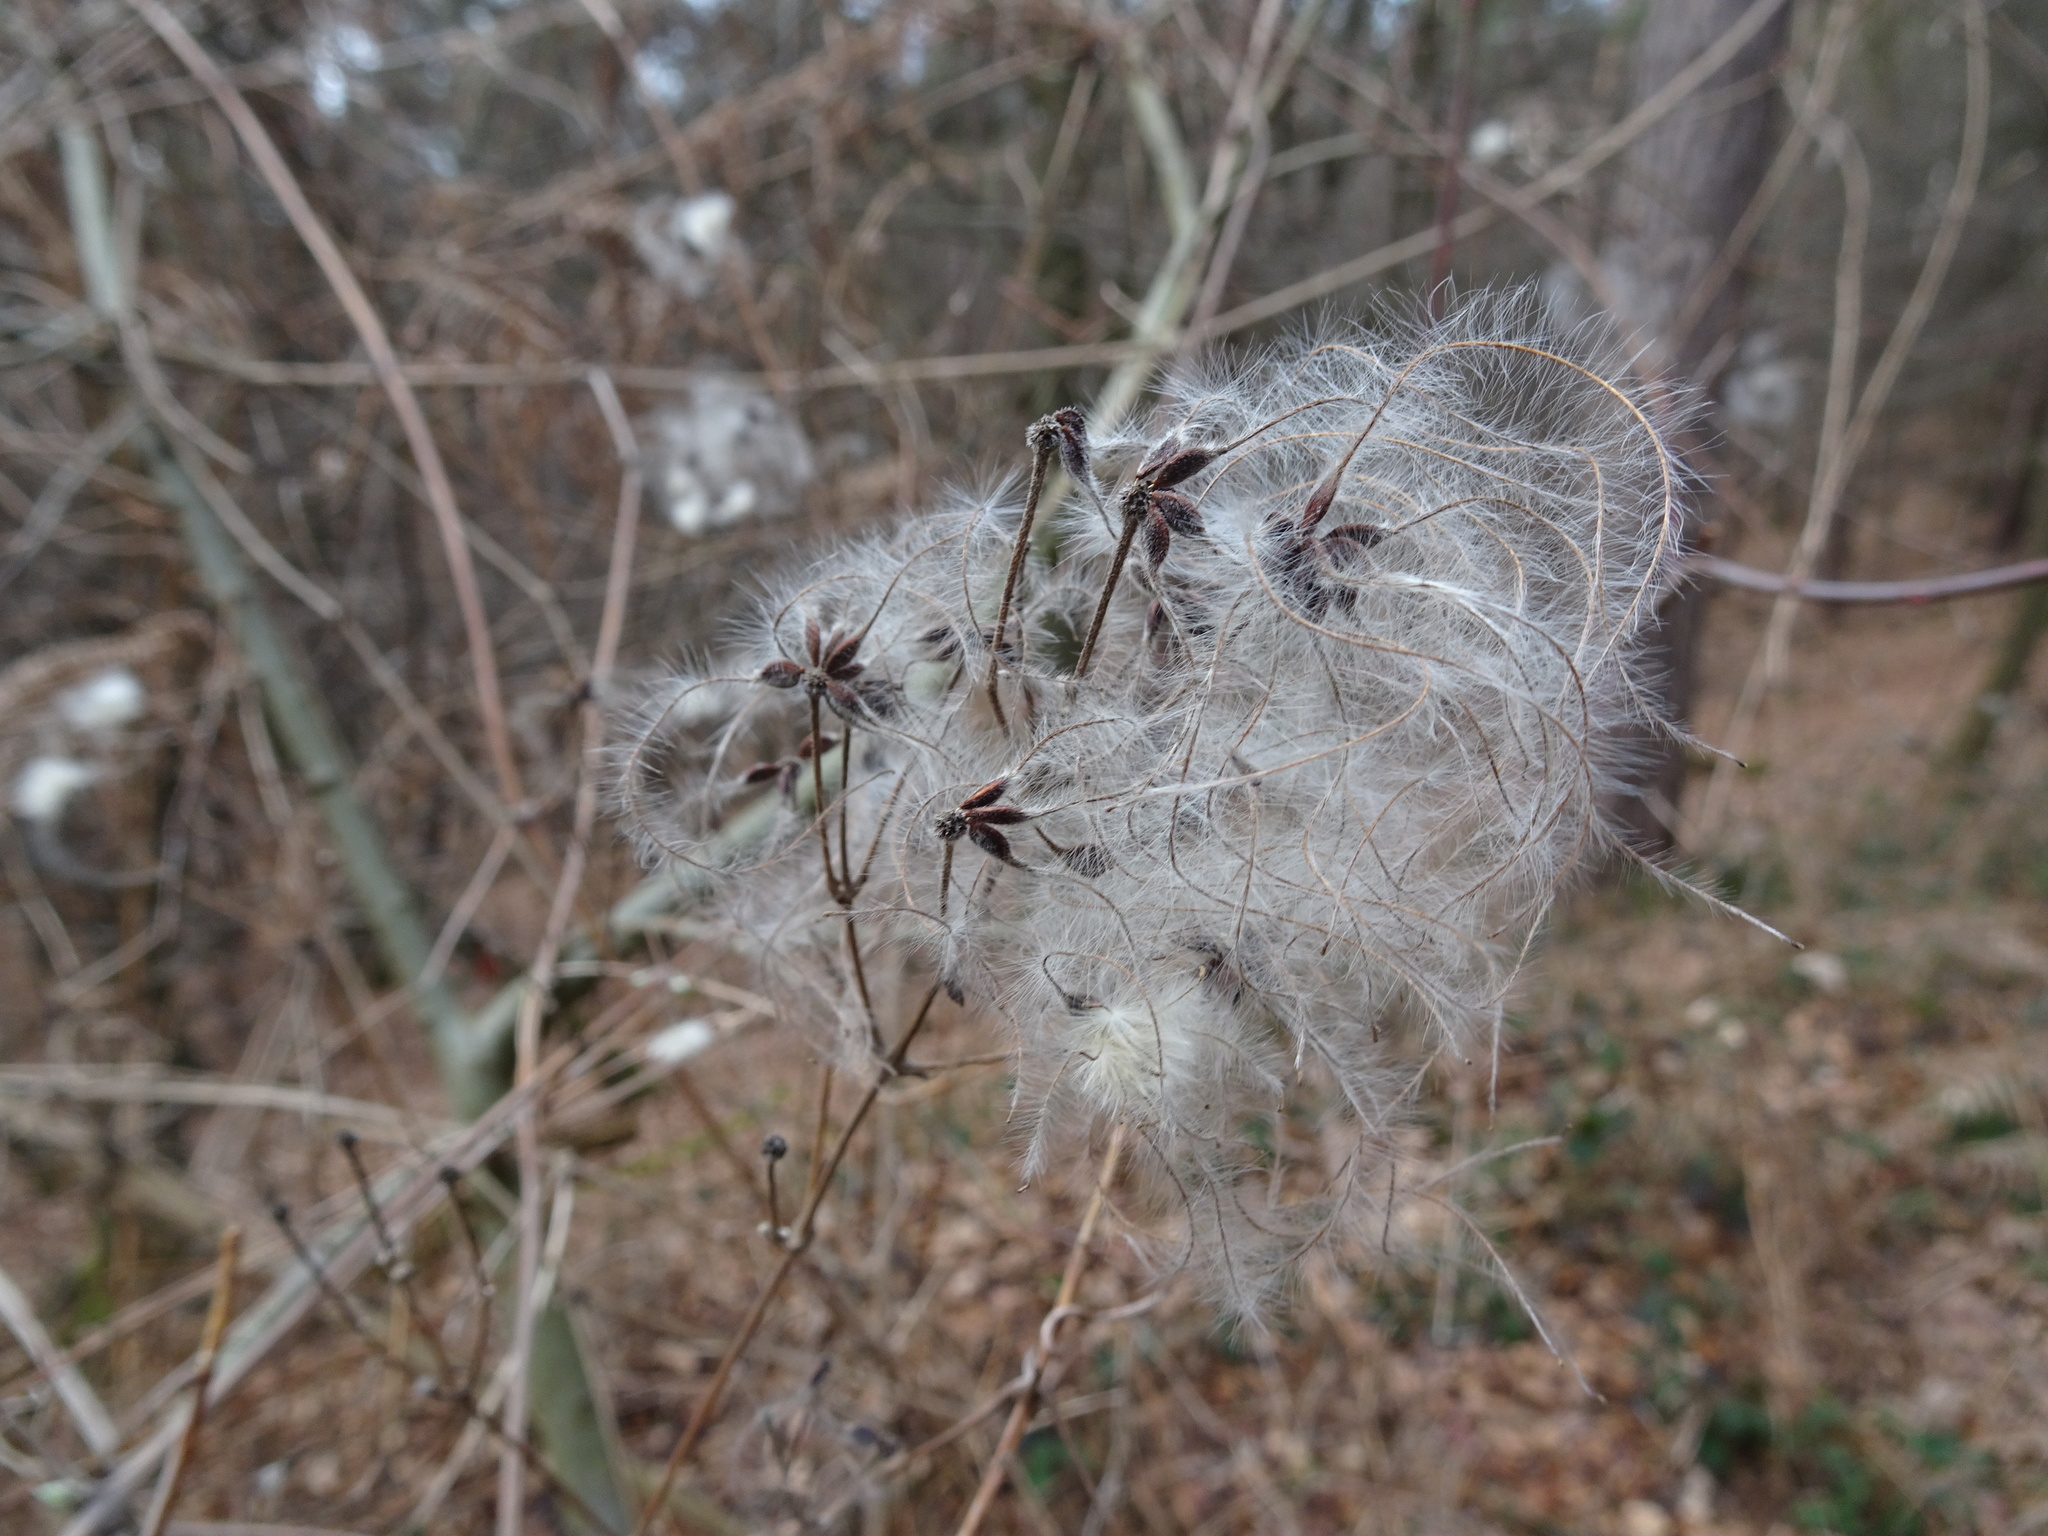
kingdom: Plantae
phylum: Tracheophyta
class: Magnoliopsida
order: Ranunculales
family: Ranunculaceae
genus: Clematis
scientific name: Clematis vitalba
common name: Evergreen clematis
